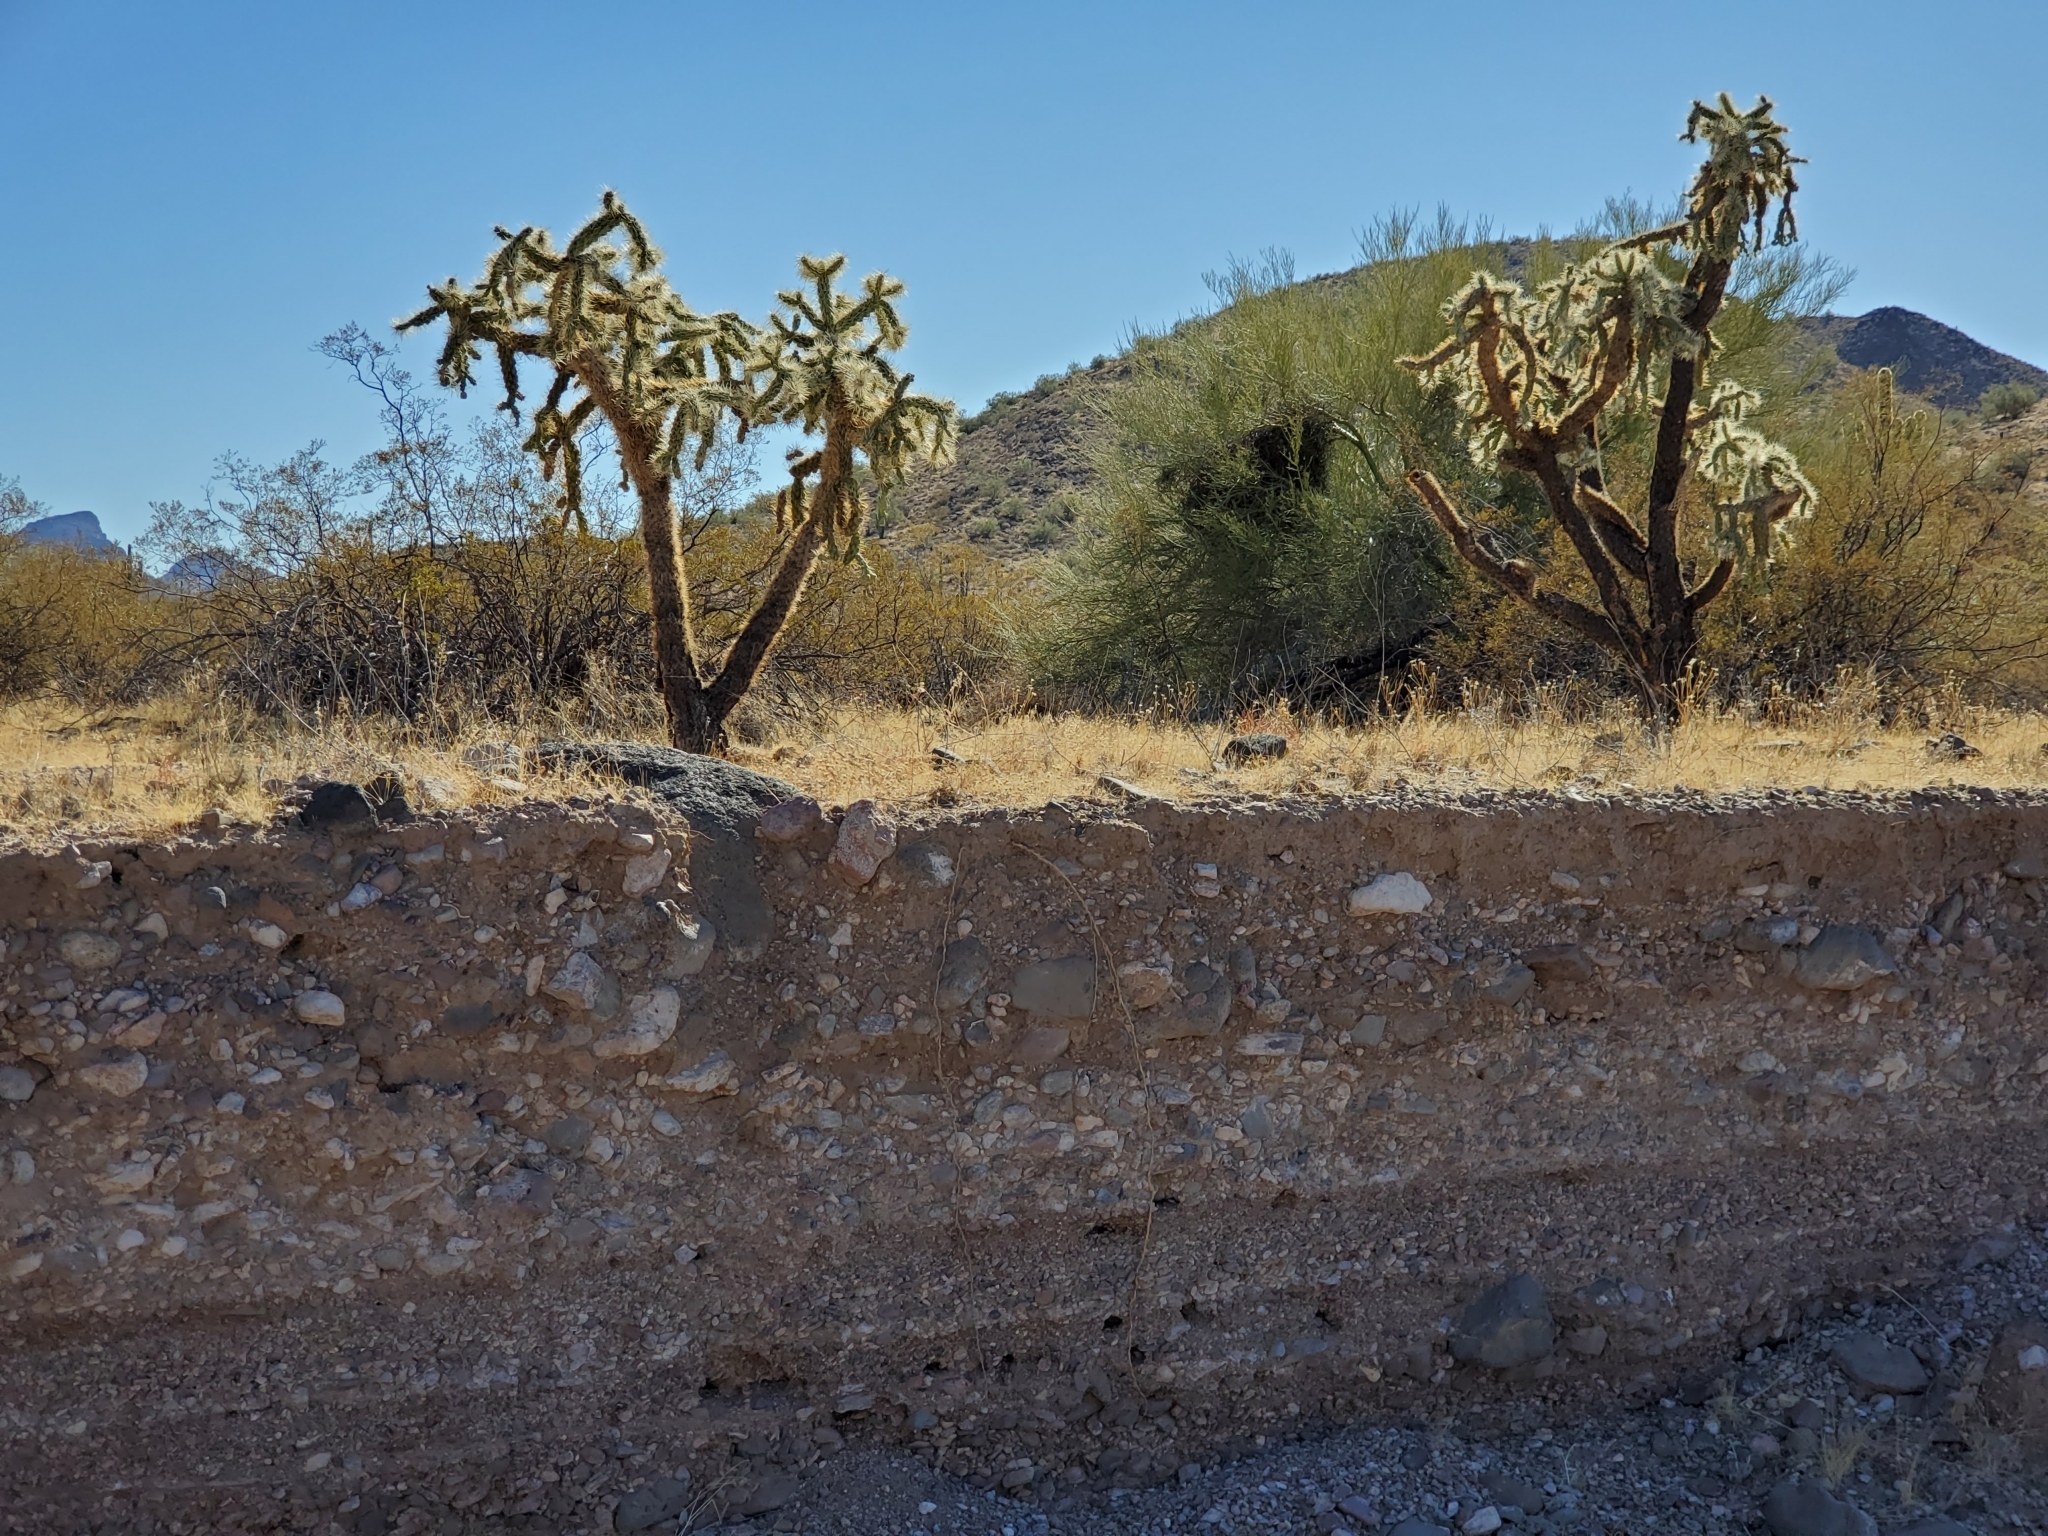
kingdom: Plantae
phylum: Tracheophyta
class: Magnoliopsida
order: Caryophyllales
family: Cactaceae
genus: Cylindropuntia
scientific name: Cylindropuntia fulgida
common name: Jumping cholla
